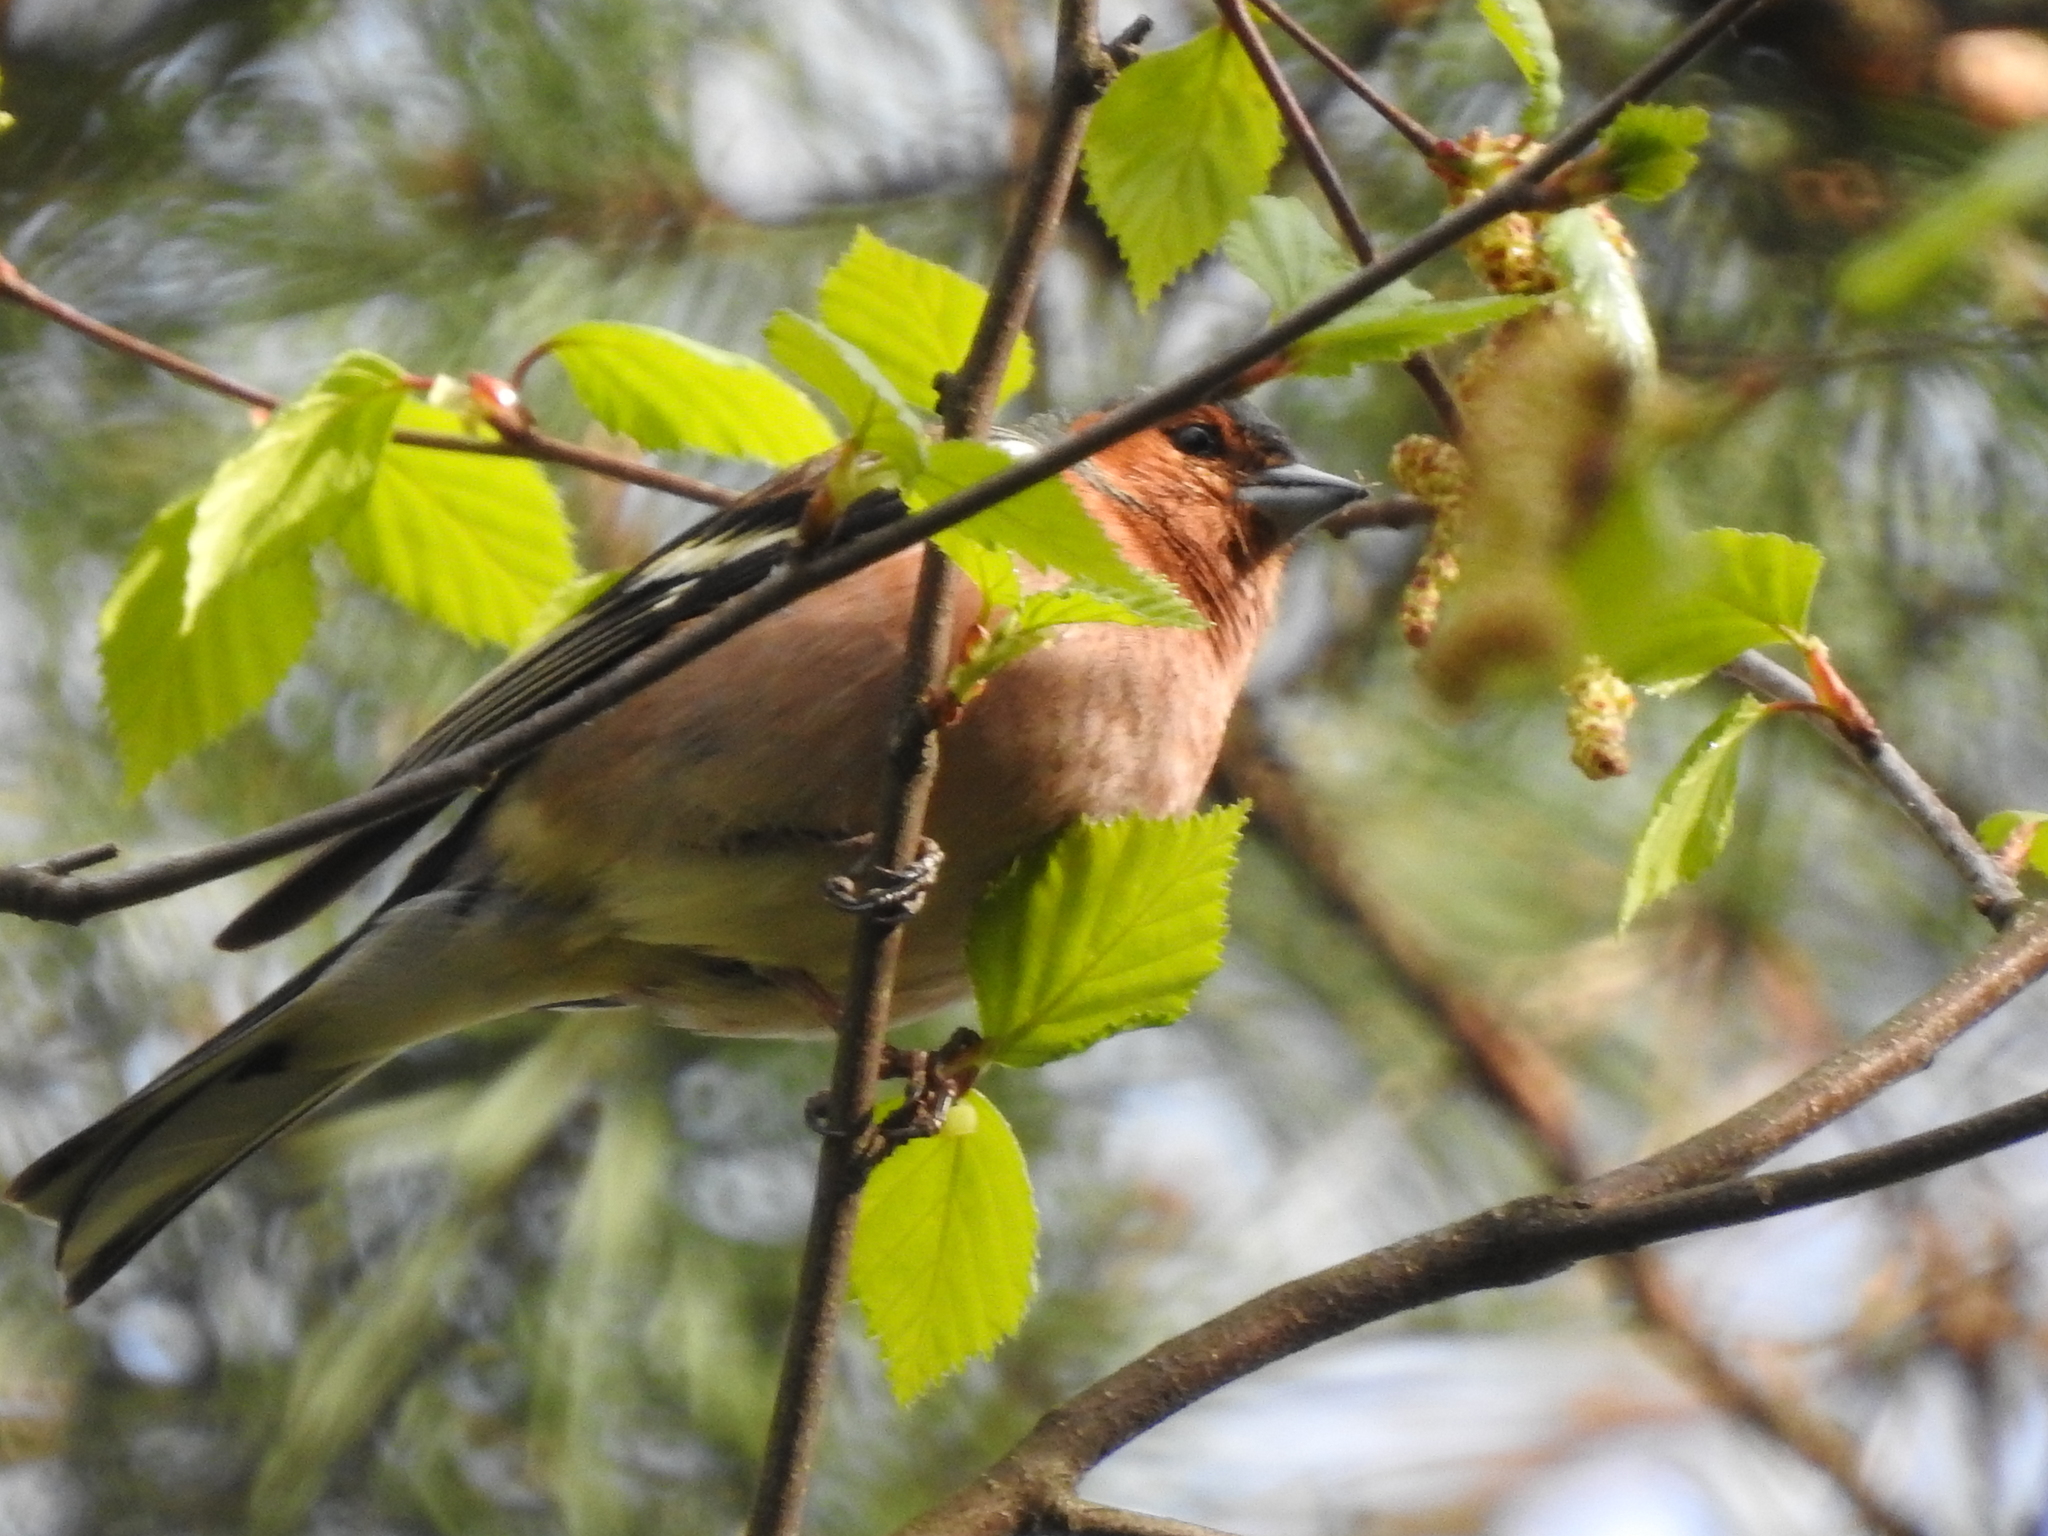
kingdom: Animalia
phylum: Chordata
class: Aves
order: Passeriformes
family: Fringillidae
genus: Fringilla
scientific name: Fringilla coelebs
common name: Common chaffinch
